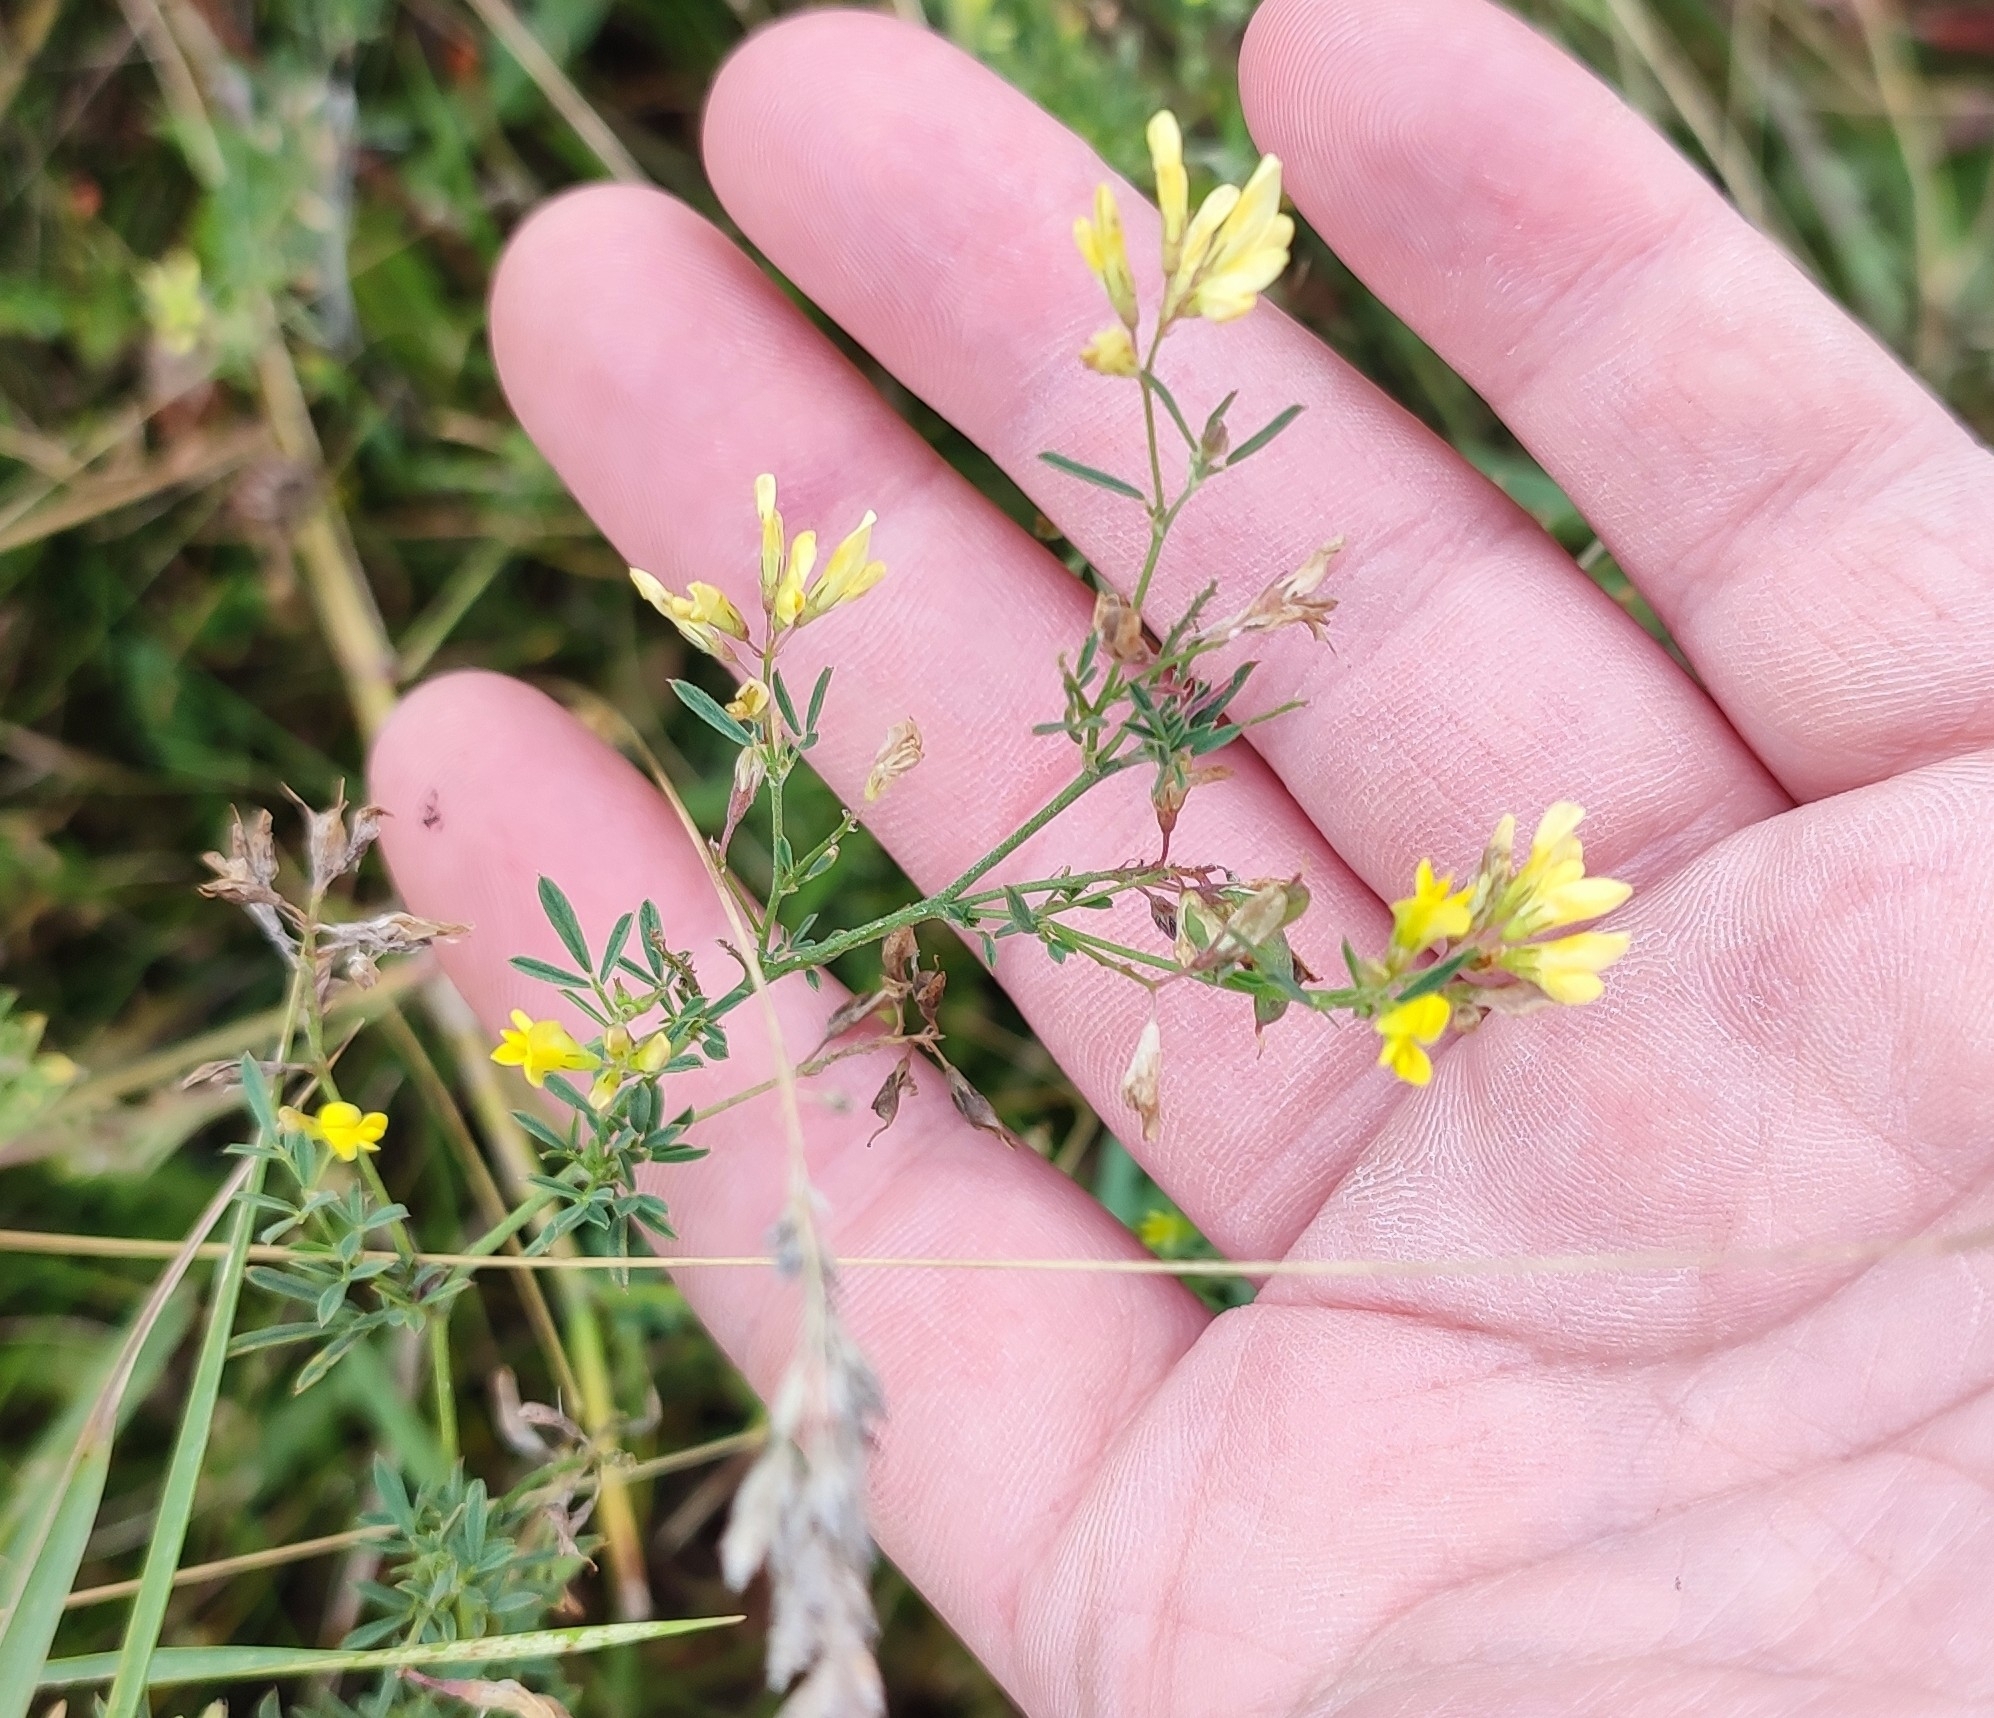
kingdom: Plantae
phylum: Tracheophyta
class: Magnoliopsida
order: Fabales
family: Fabaceae
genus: Medicago
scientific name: Medicago falcata
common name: Sickle medick
